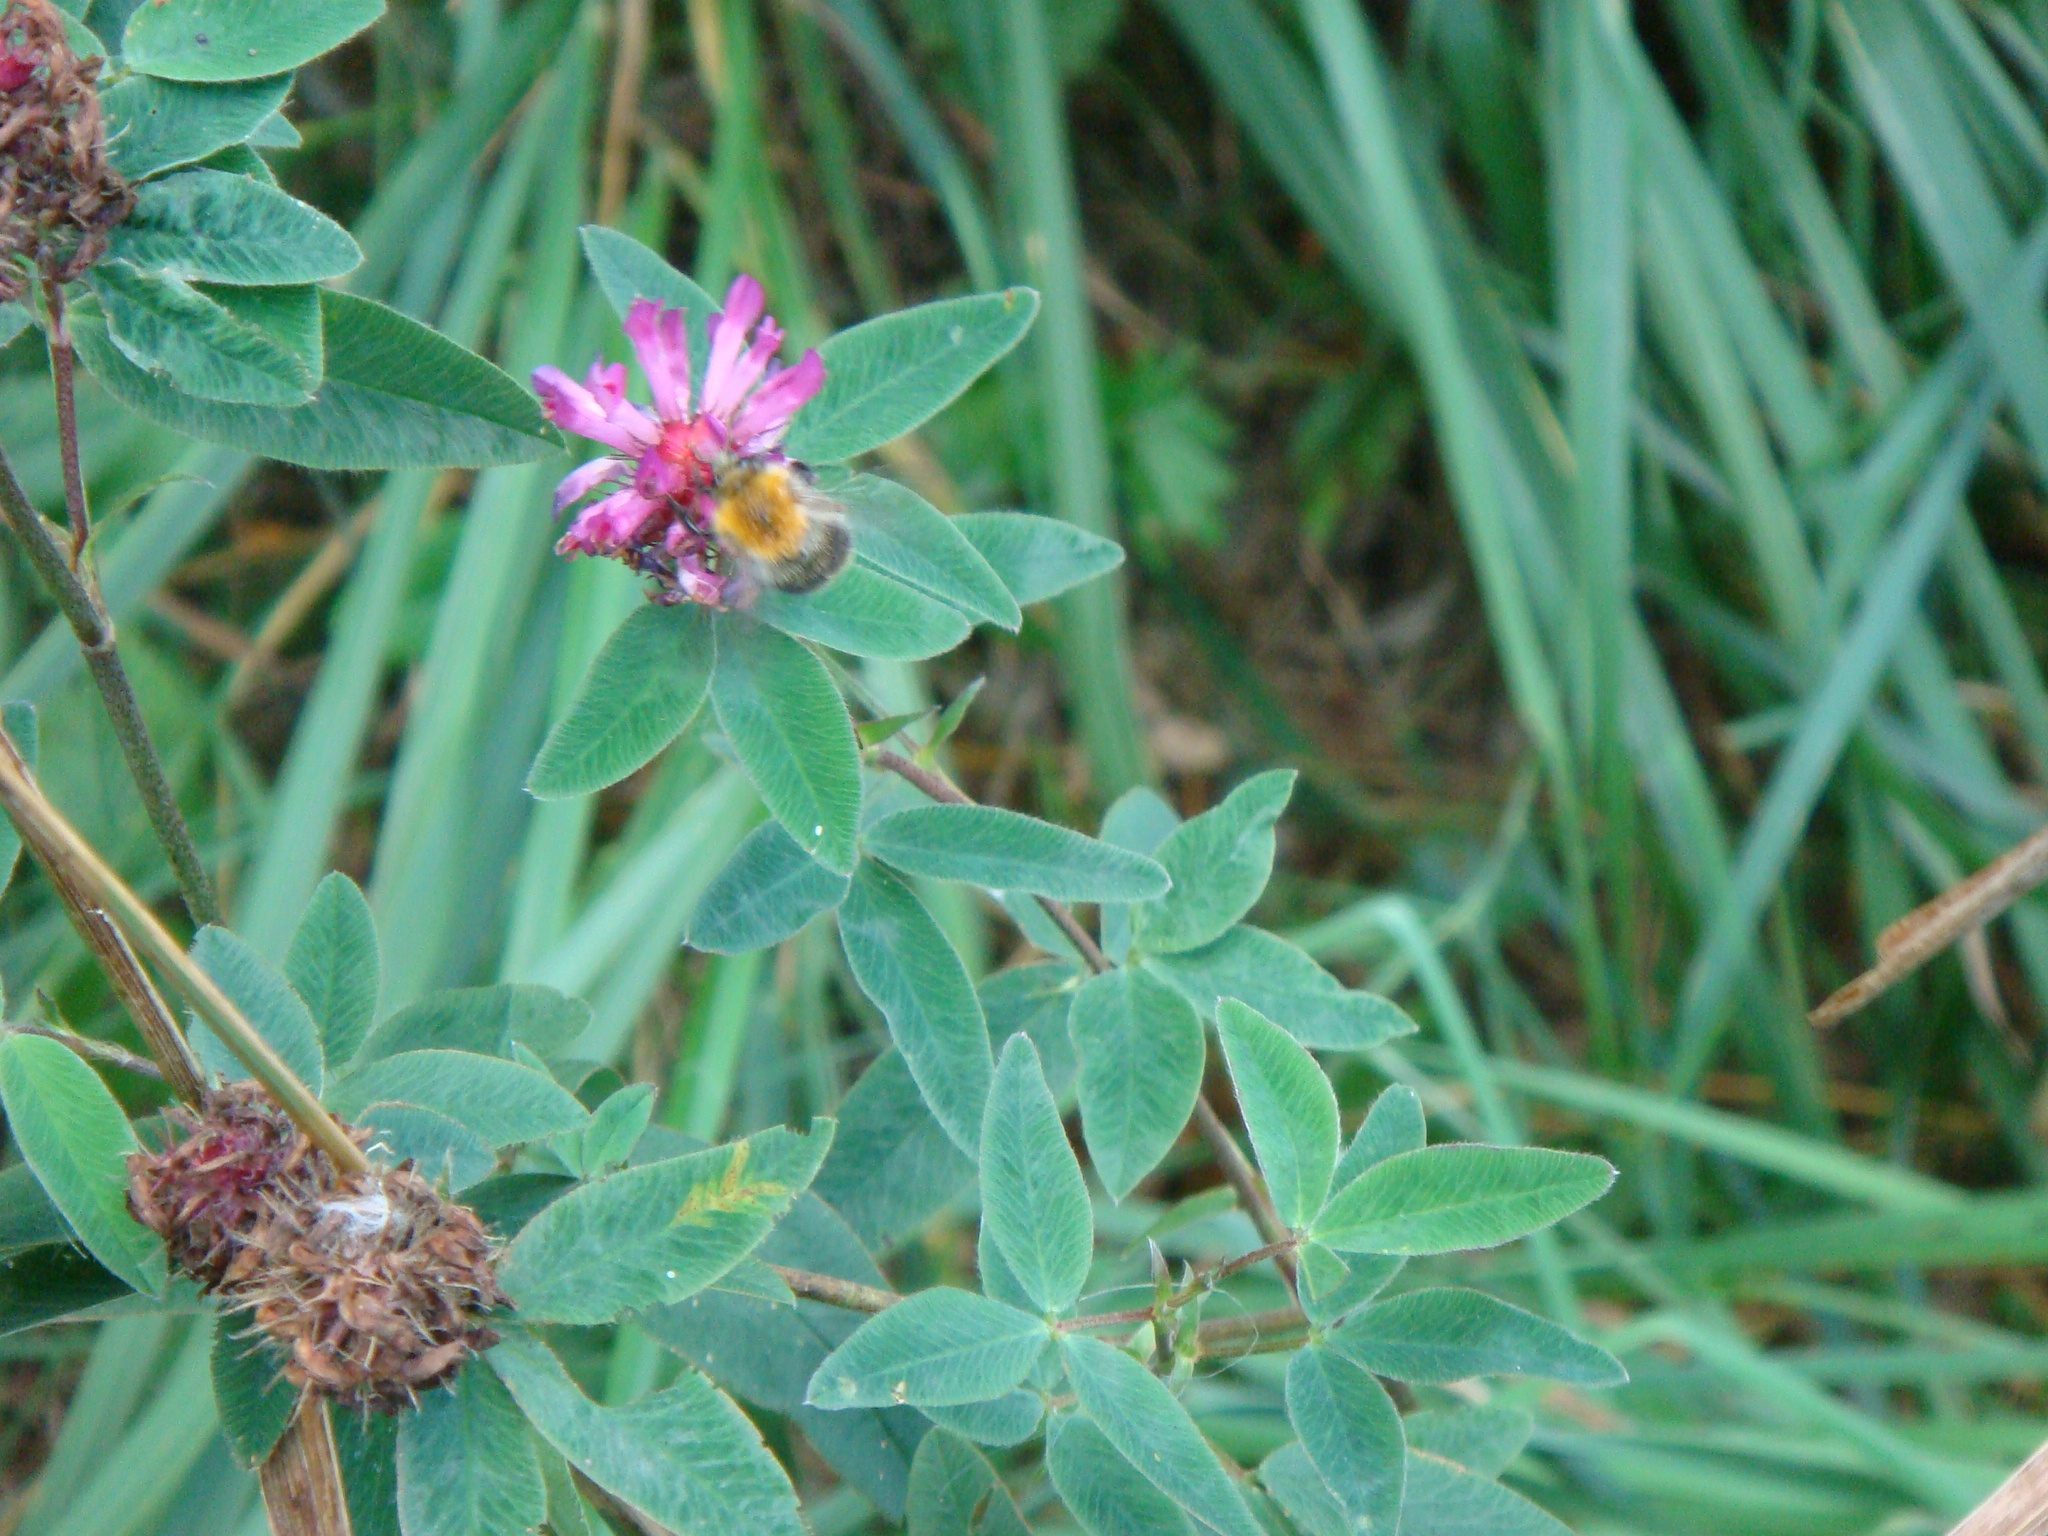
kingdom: Plantae
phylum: Tracheophyta
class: Magnoliopsida
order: Fabales
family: Fabaceae
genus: Trifolium
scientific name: Trifolium medium
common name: Zigzag clover
